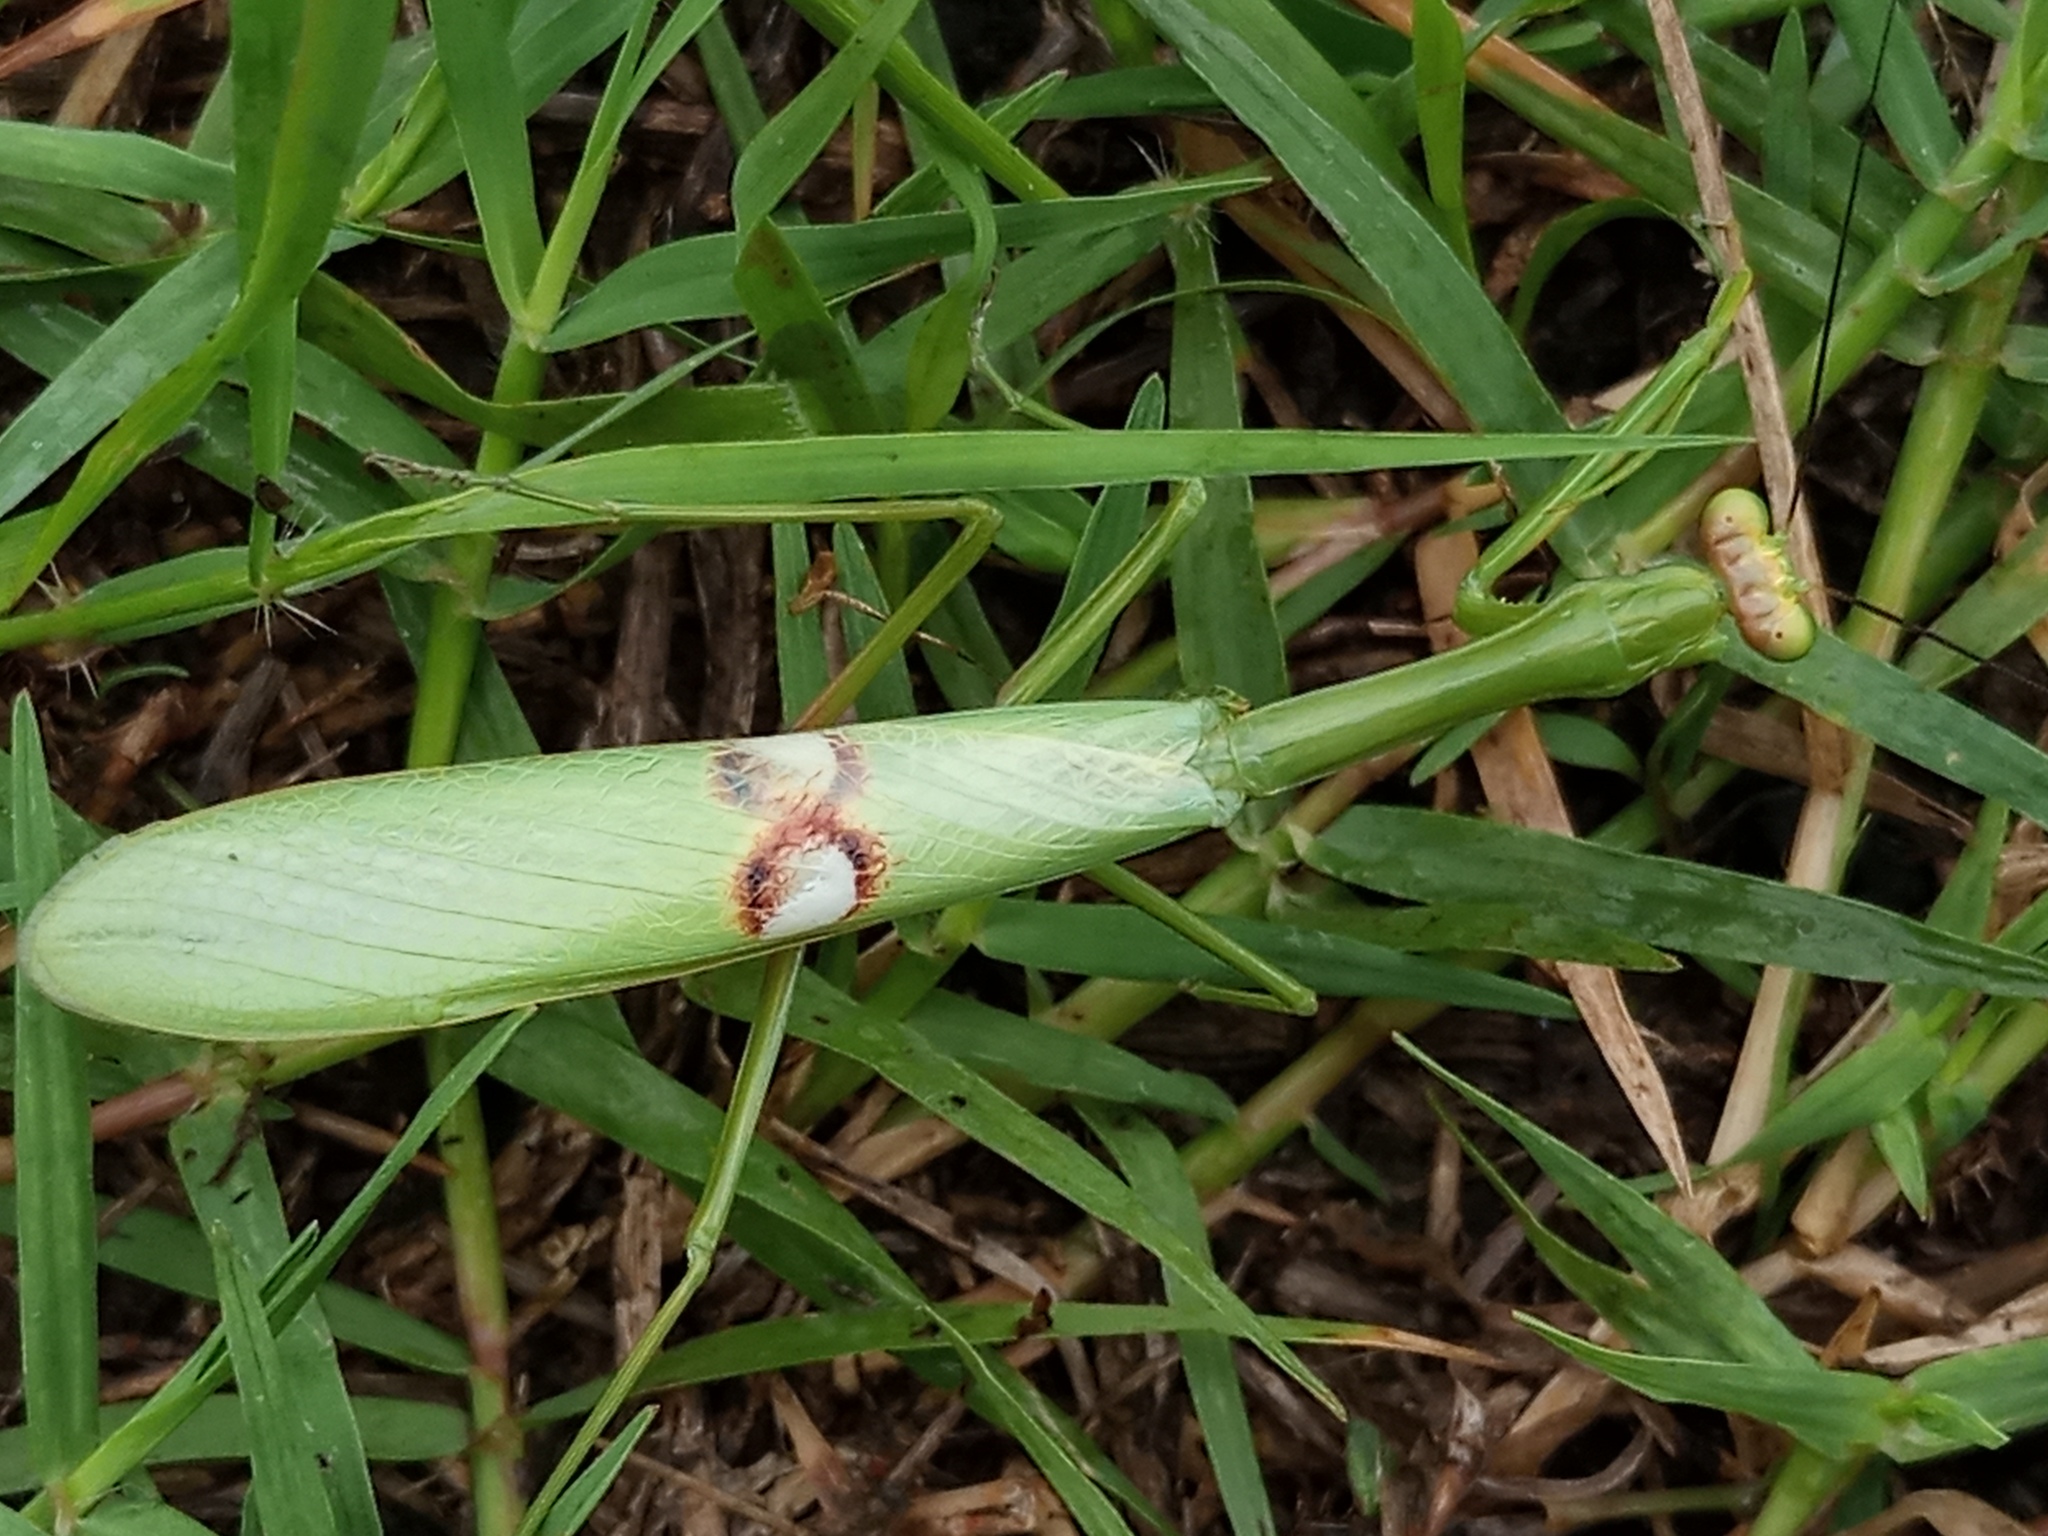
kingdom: Animalia
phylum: Arthropoda
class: Insecta
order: Mantodea
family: Mantidae
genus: Stagmatoptera
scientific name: Stagmatoptera hyaloptera
